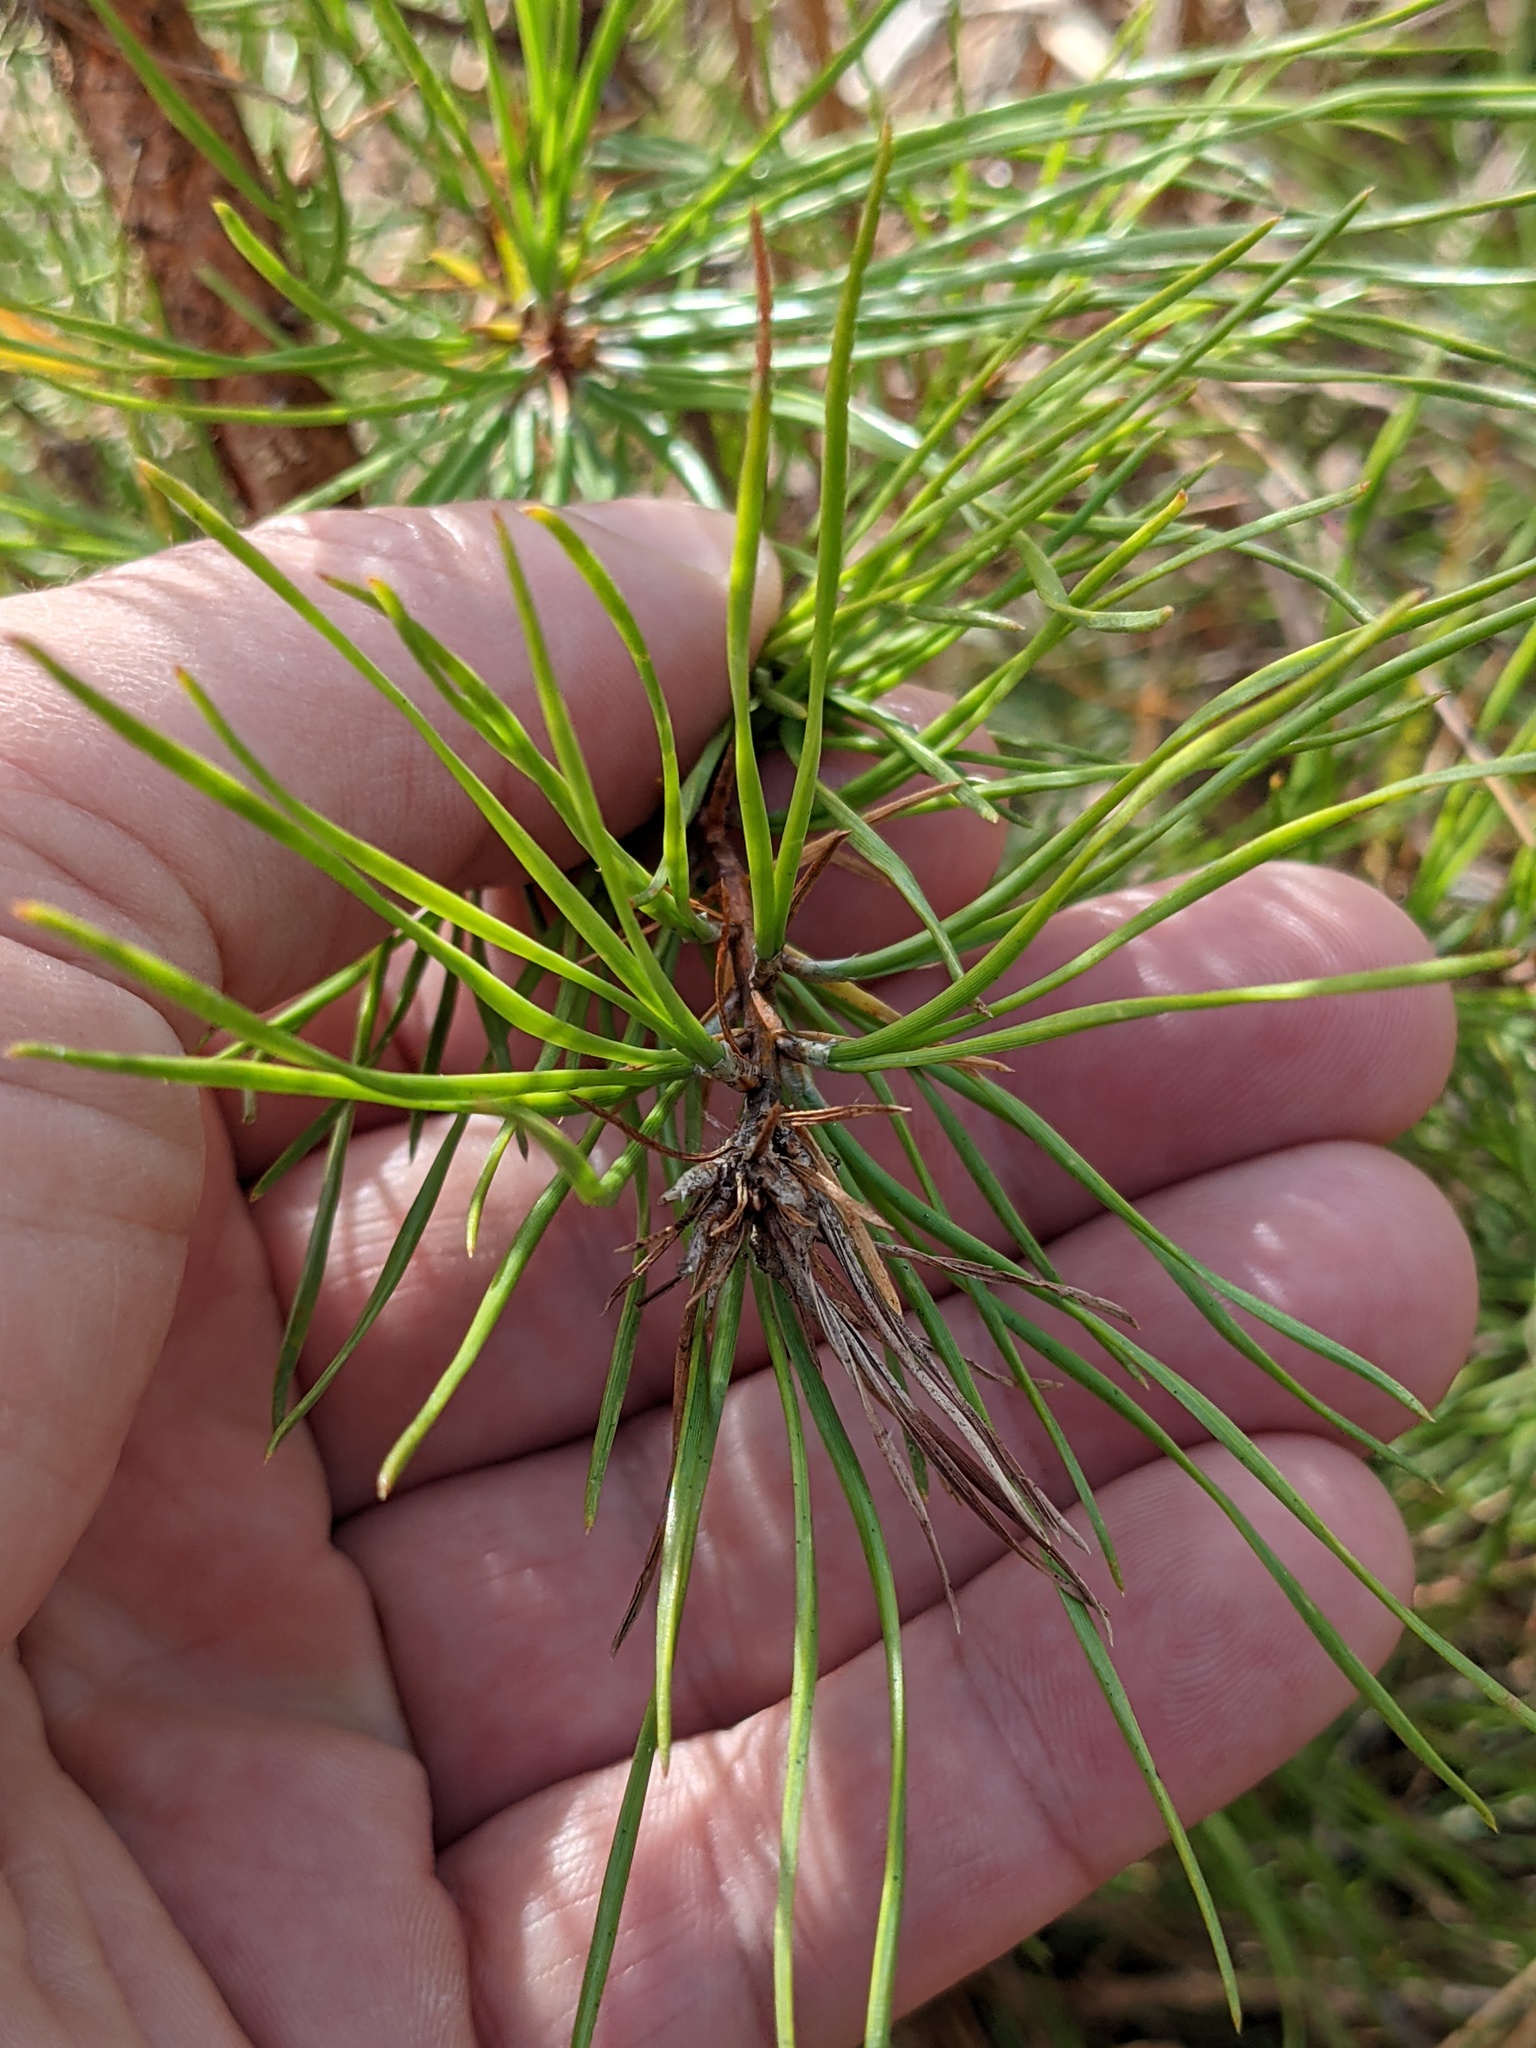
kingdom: Plantae
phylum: Tracheophyta
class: Pinopsida
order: Pinales
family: Pinaceae
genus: Pinus
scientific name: Pinus echinata
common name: Shortleaf pine
